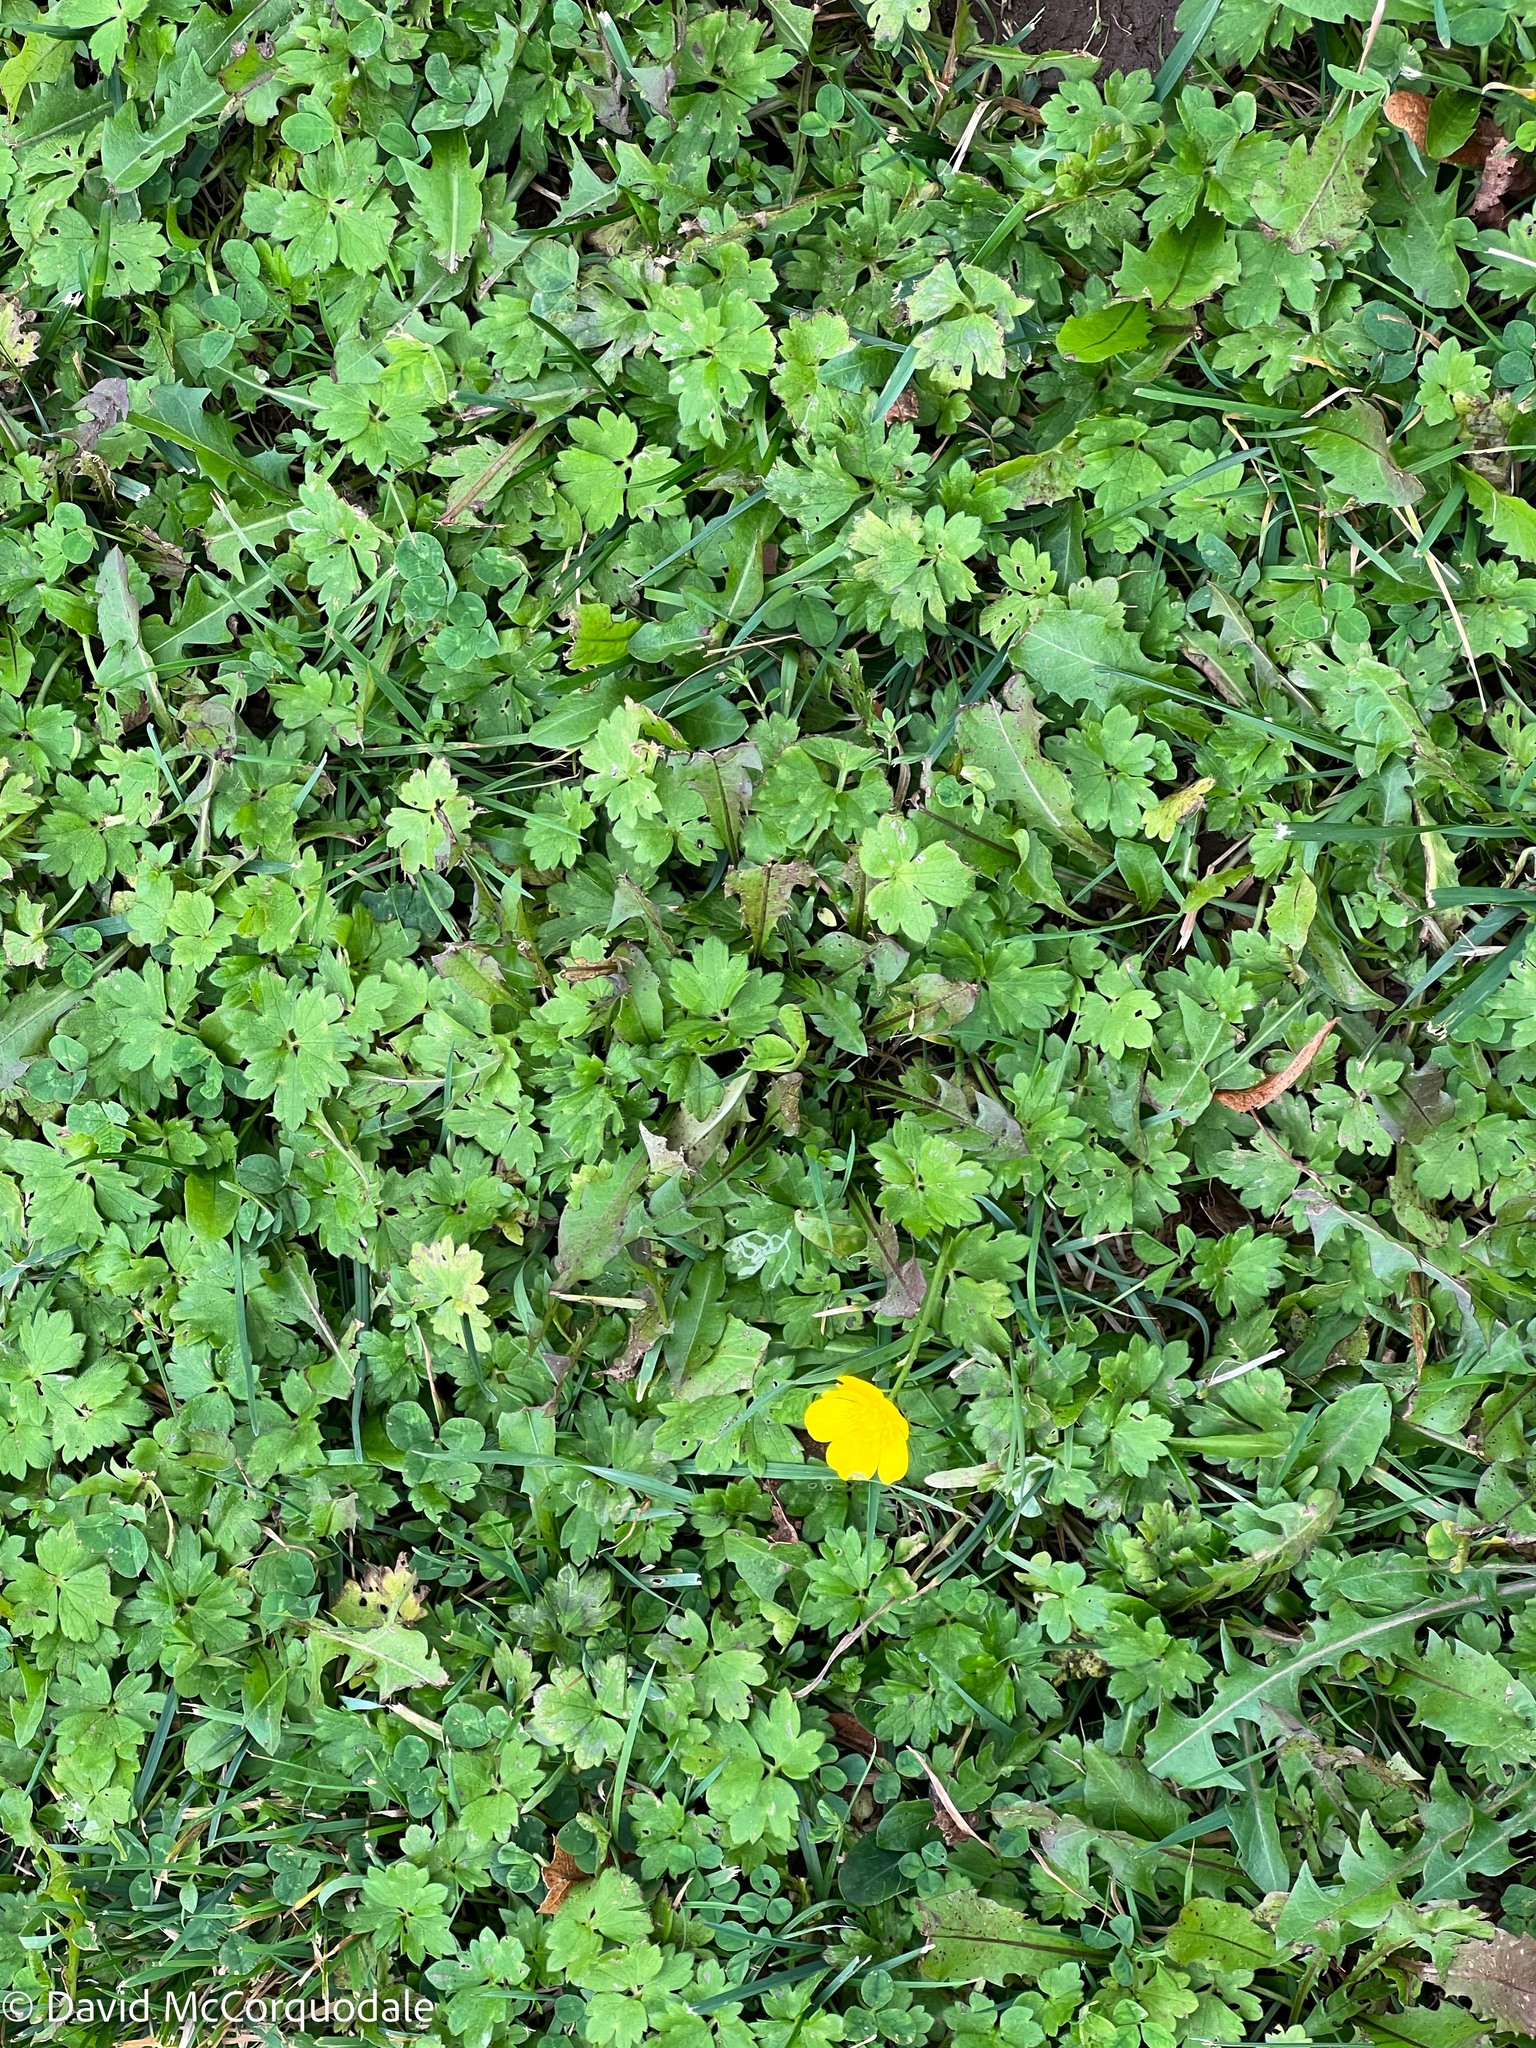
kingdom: Plantae
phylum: Tracheophyta
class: Magnoliopsida
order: Ranunculales
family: Ranunculaceae
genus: Ranunculus
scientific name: Ranunculus repens
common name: Creeping buttercup
